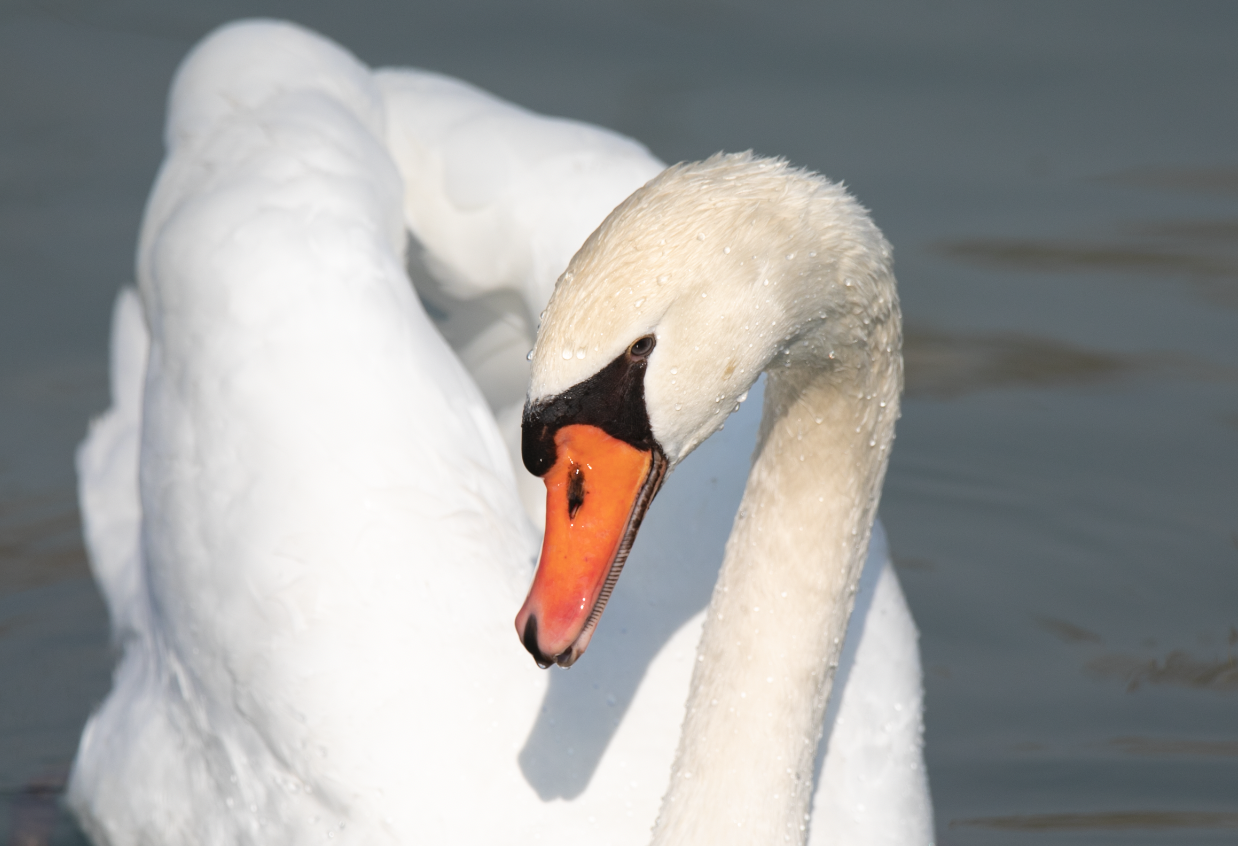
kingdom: Animalia
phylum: Chordata
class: Aves
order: Anseriformes
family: Anatidae
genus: Cygnus
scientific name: Cygnus olor
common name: Mute swan
